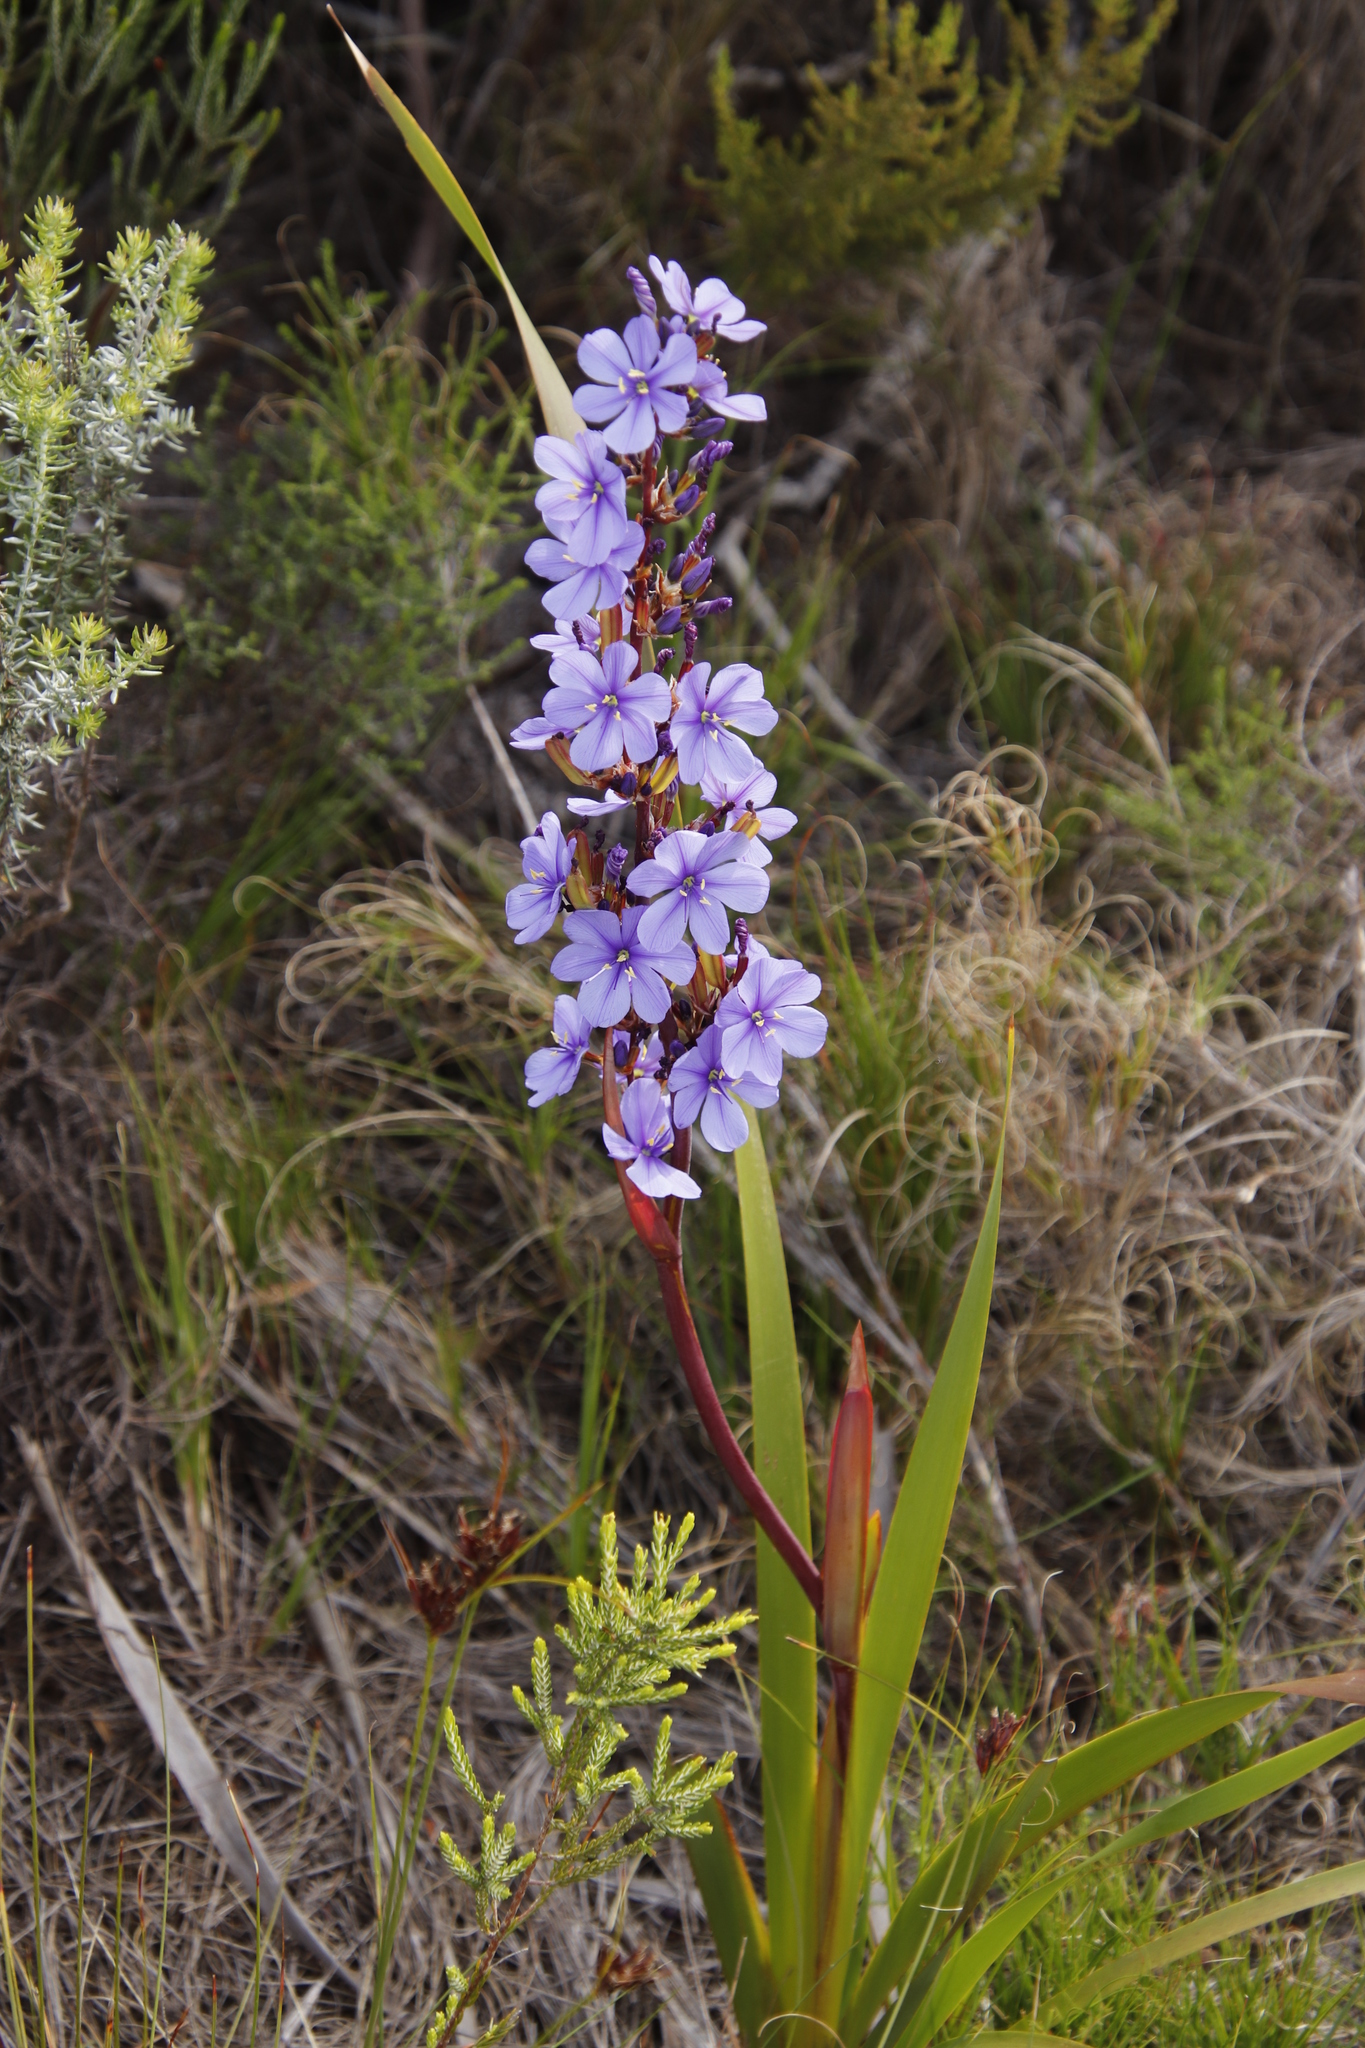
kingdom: Plantae
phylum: Tracheophyta
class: Liliopsida
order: Asparagales
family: Iridaceae
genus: Aristea
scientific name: Aristea capitata
